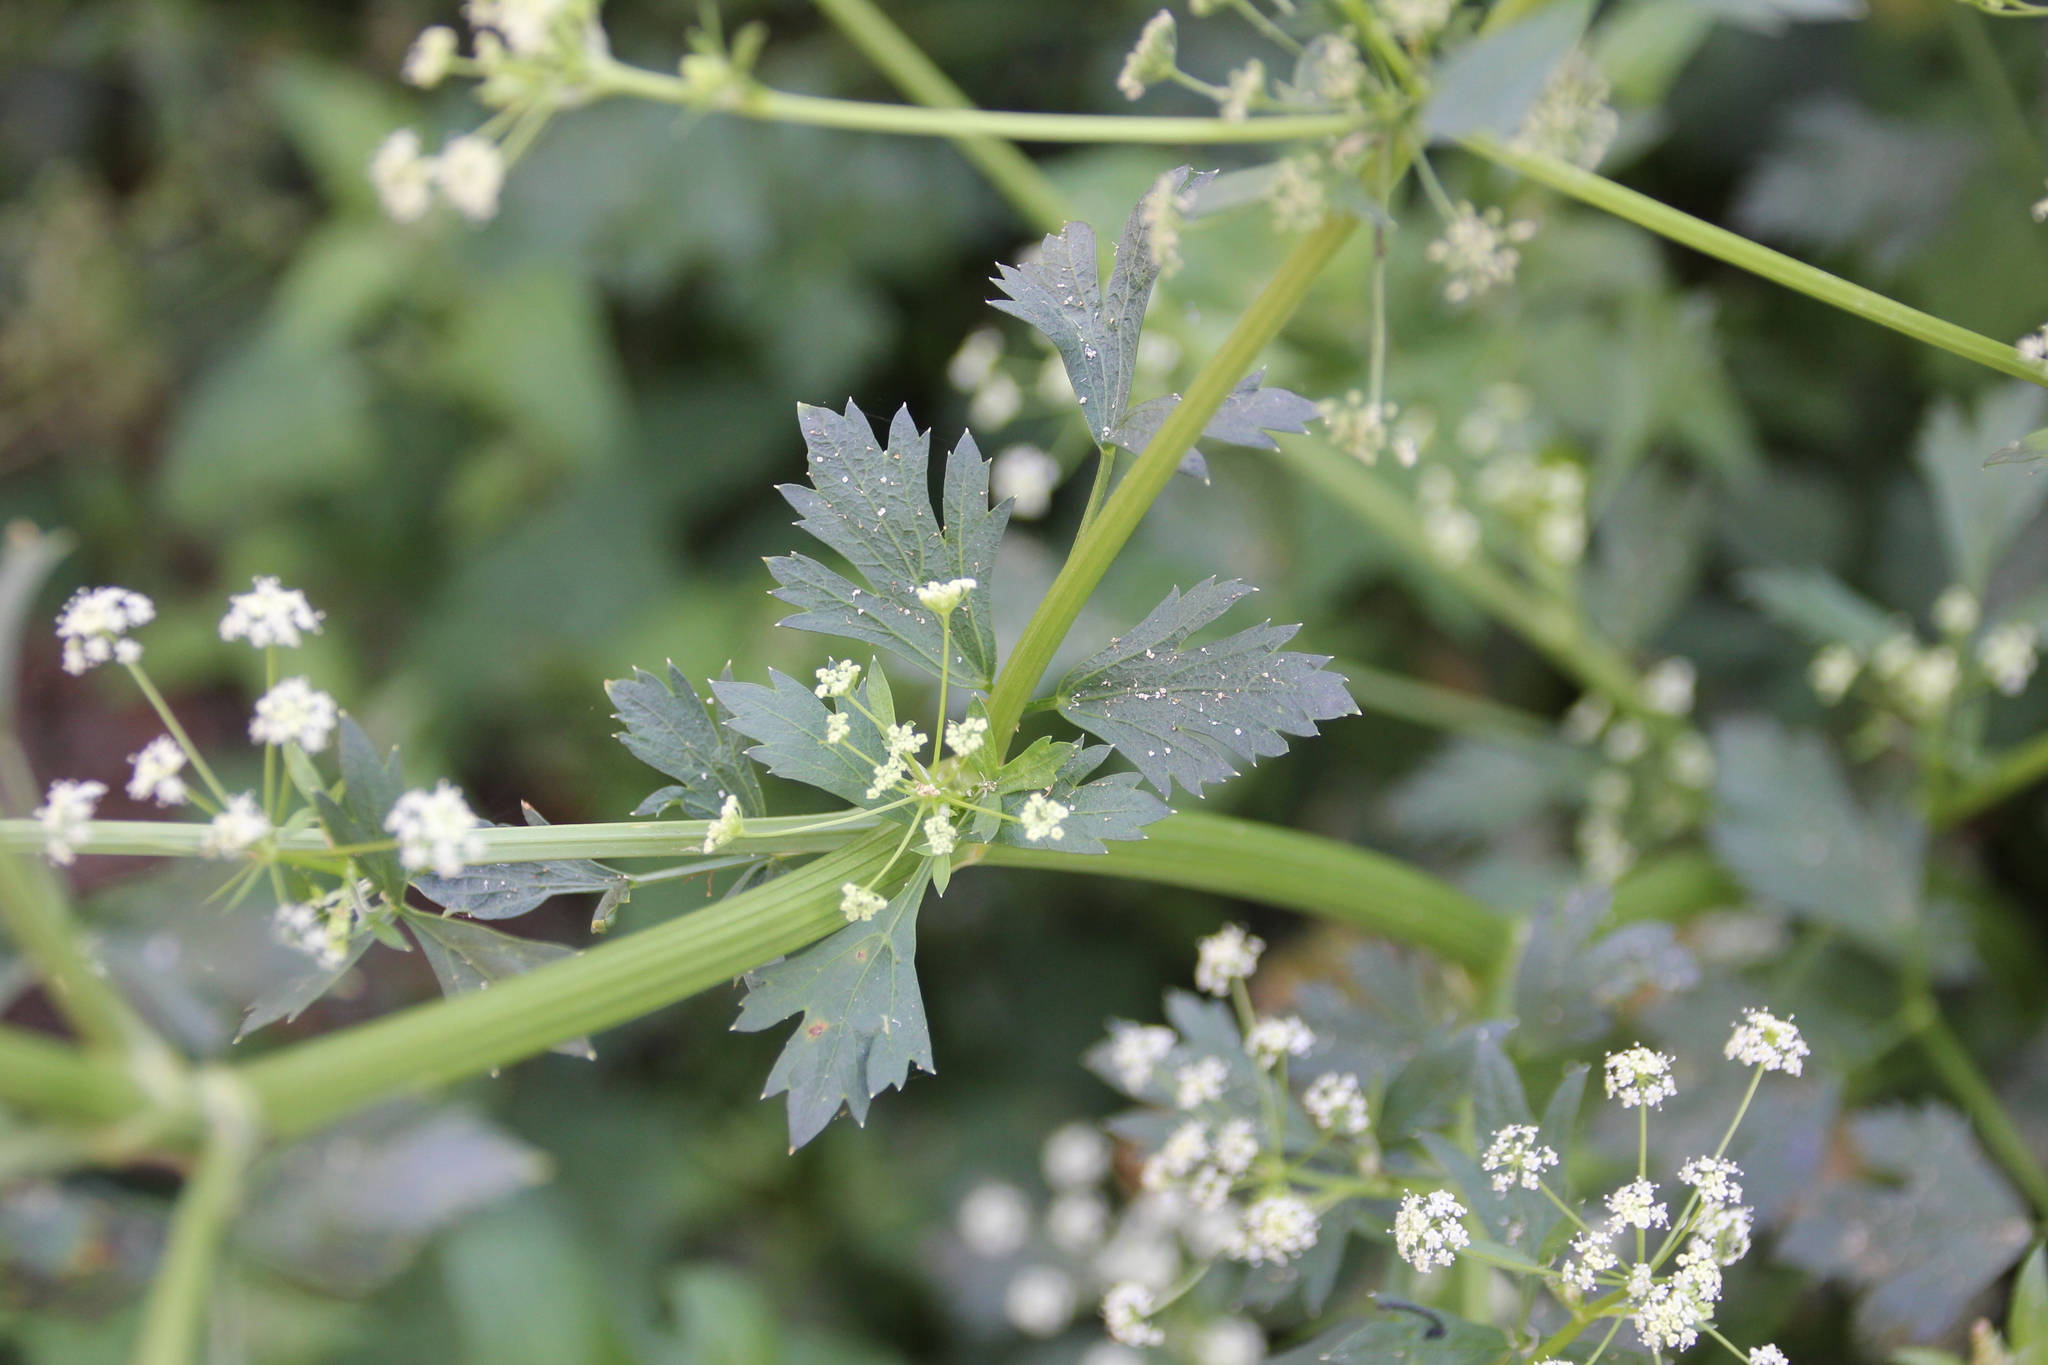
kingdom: Plantae
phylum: Tracheophyta
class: Magnoliopsida
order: Apiales
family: Apiaceae
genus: Apium
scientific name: Apium graveolens
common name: Wild celery
